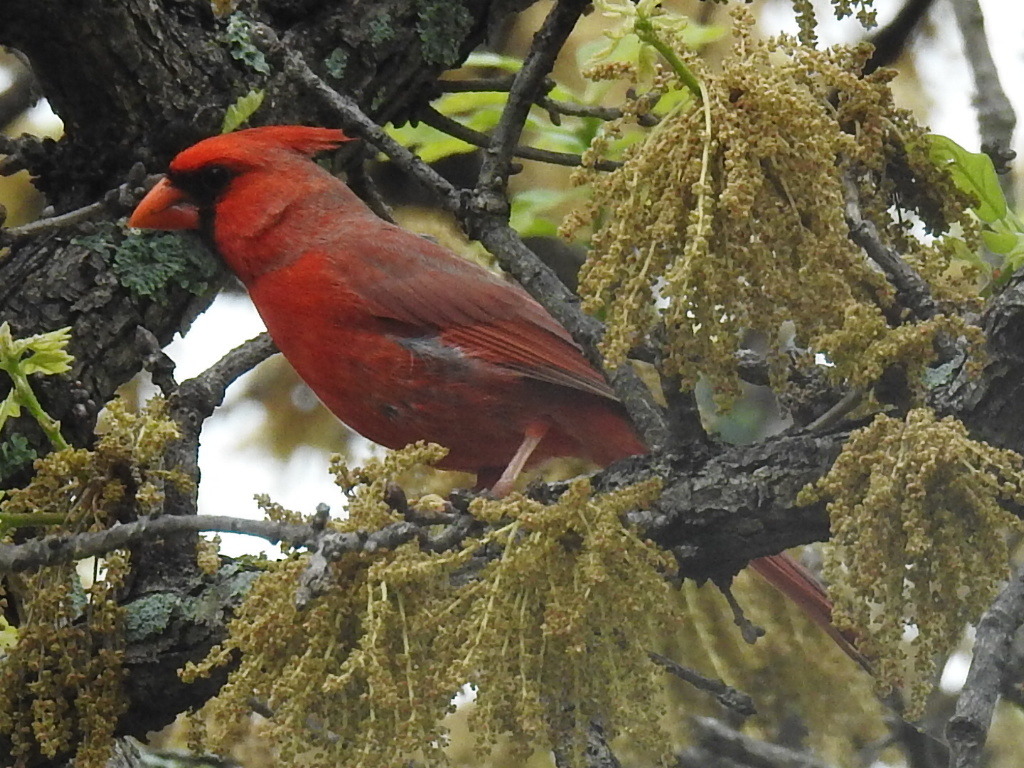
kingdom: Animalia
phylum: Chordata
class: Aves
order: Passeriformes
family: Cardinalidae
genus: Cardinalis
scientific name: Cardinalis cardinalis
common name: Northern cardinal
